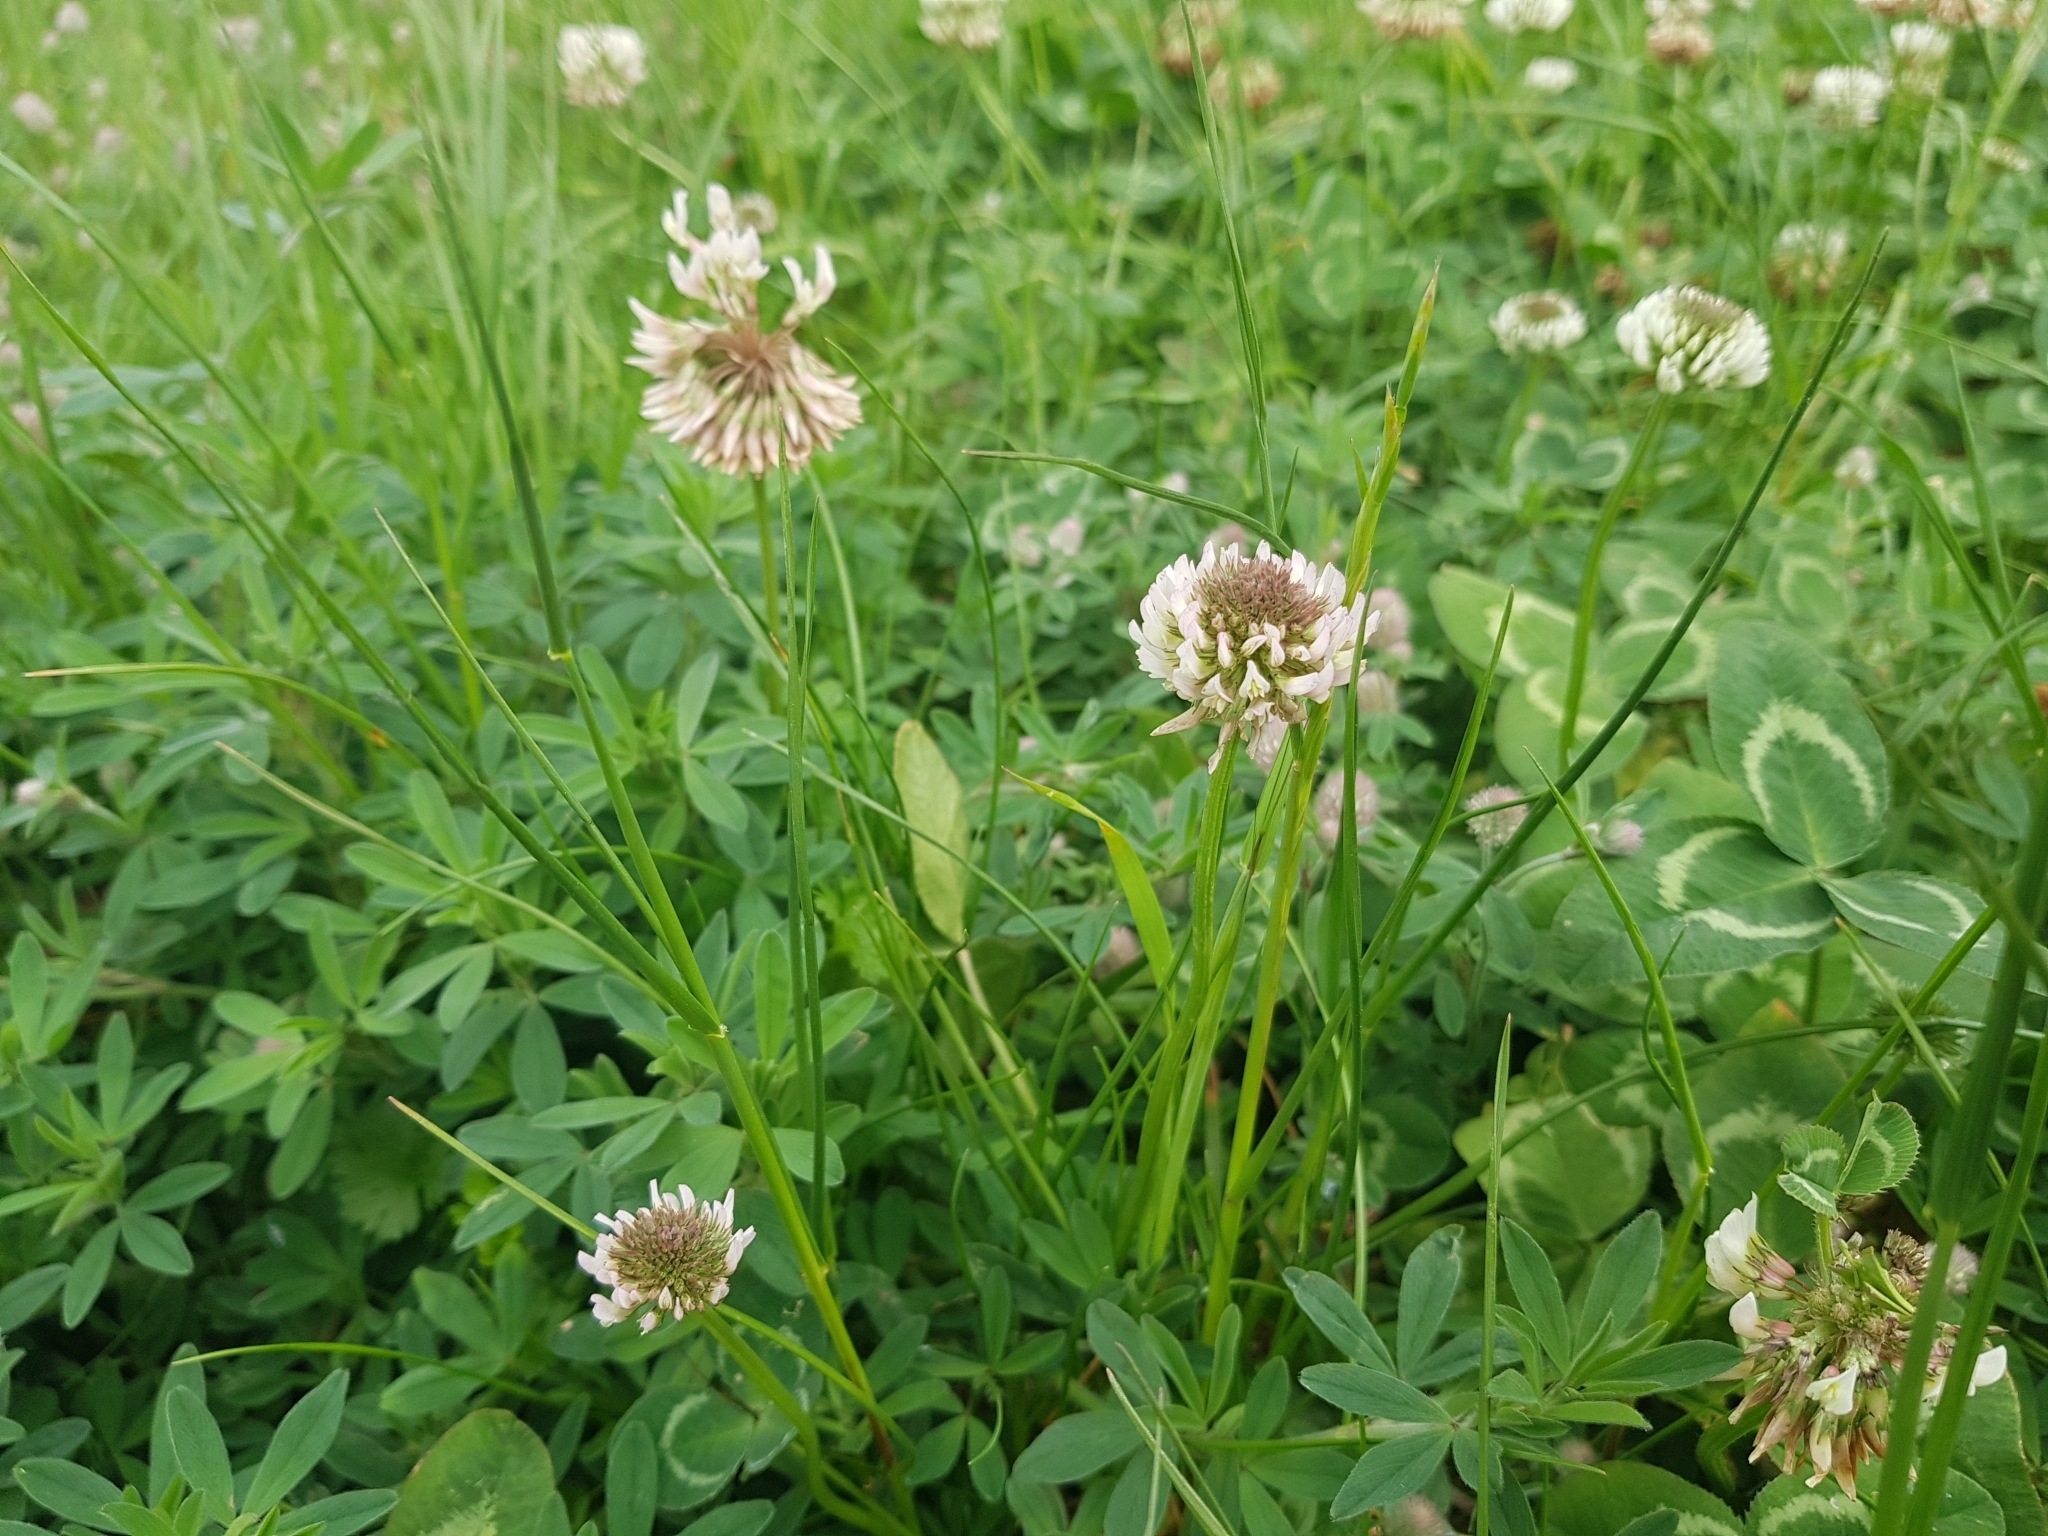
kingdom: Plantae
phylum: Tracheophyta
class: Magnoliopsida
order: Fabales
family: Fabaceae
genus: Trifolium
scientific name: Trifolium repens
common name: White clover
